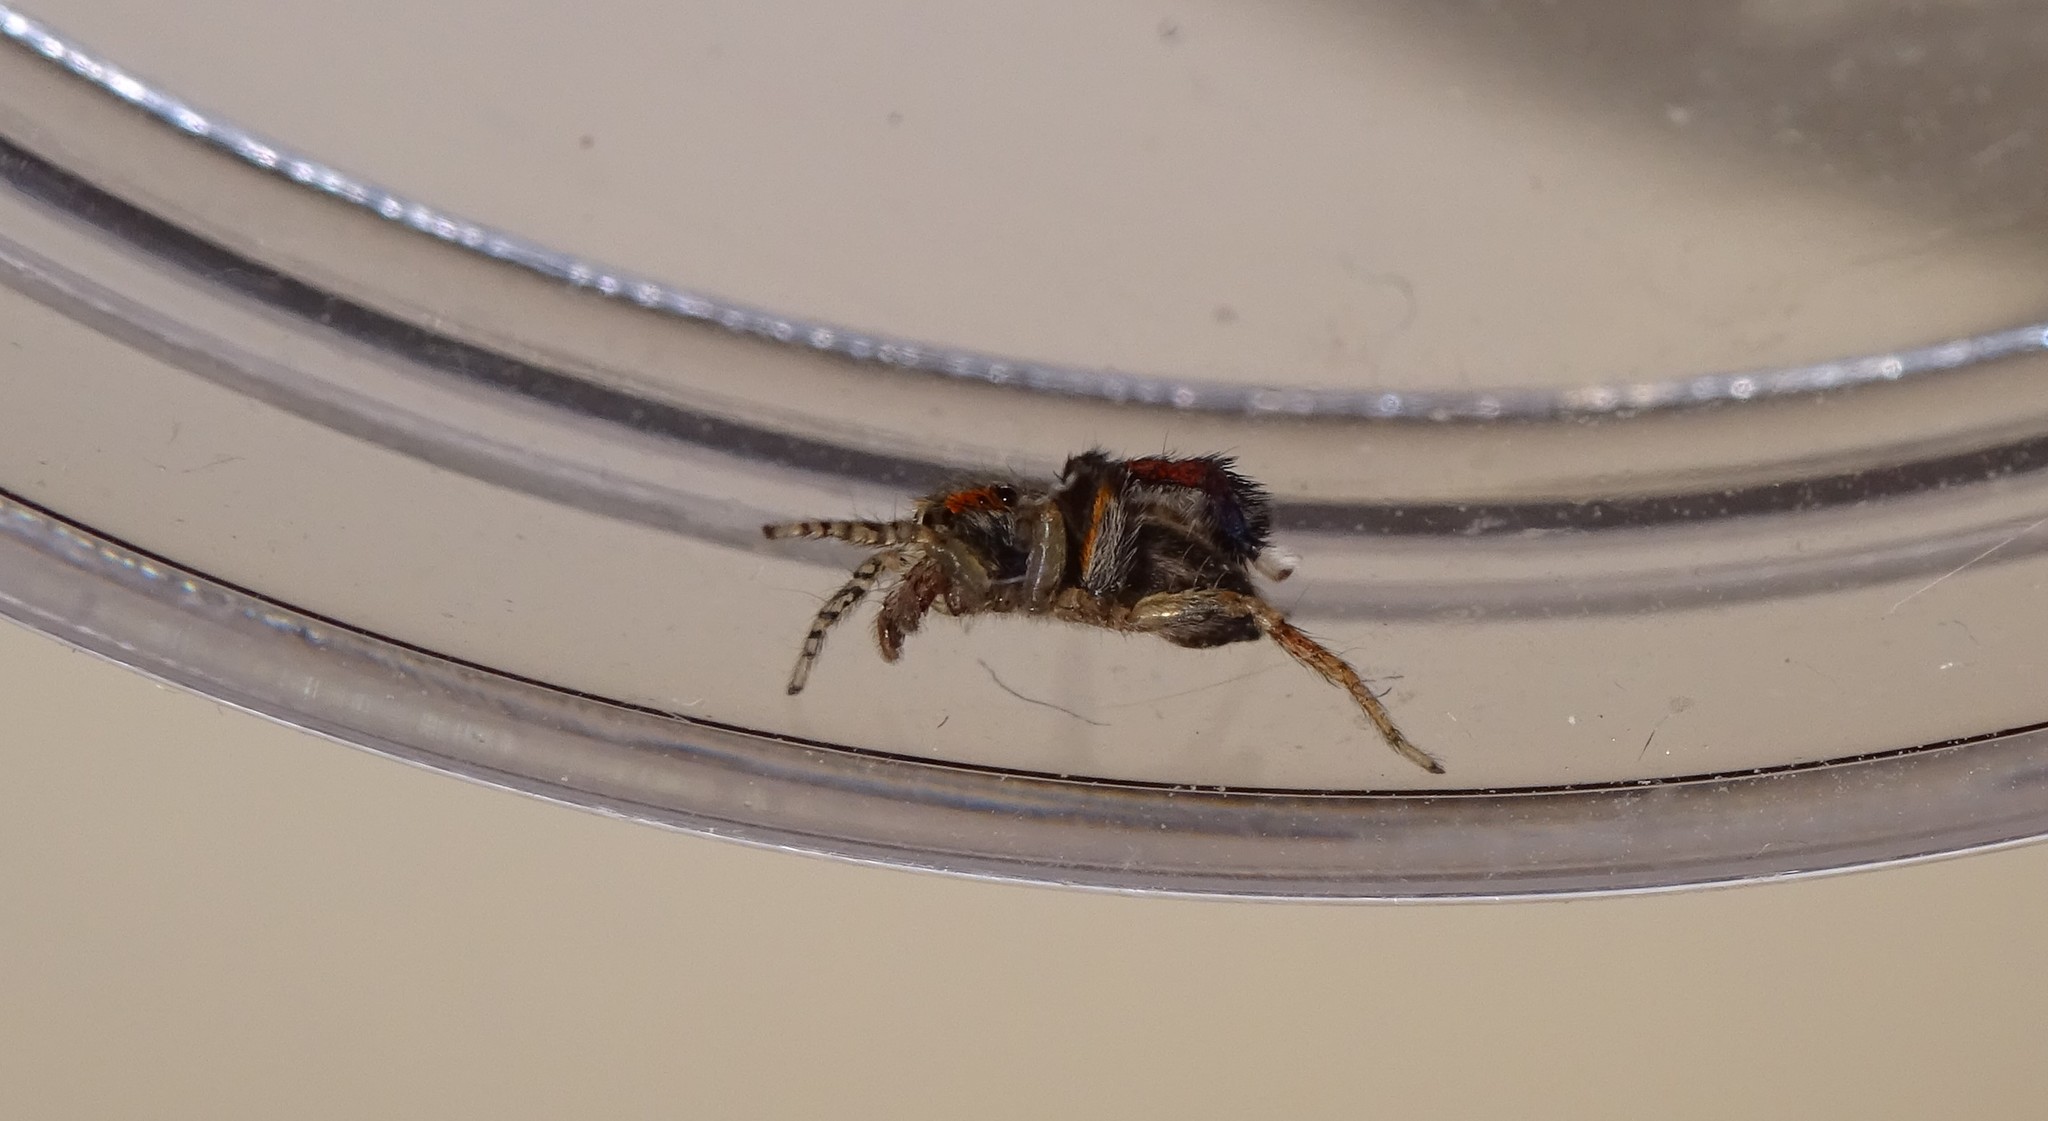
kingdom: Animalia
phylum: Arthropoda
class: Arachnida
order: Araneae
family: Salticidae
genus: Saitis
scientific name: Saitis barbipes
